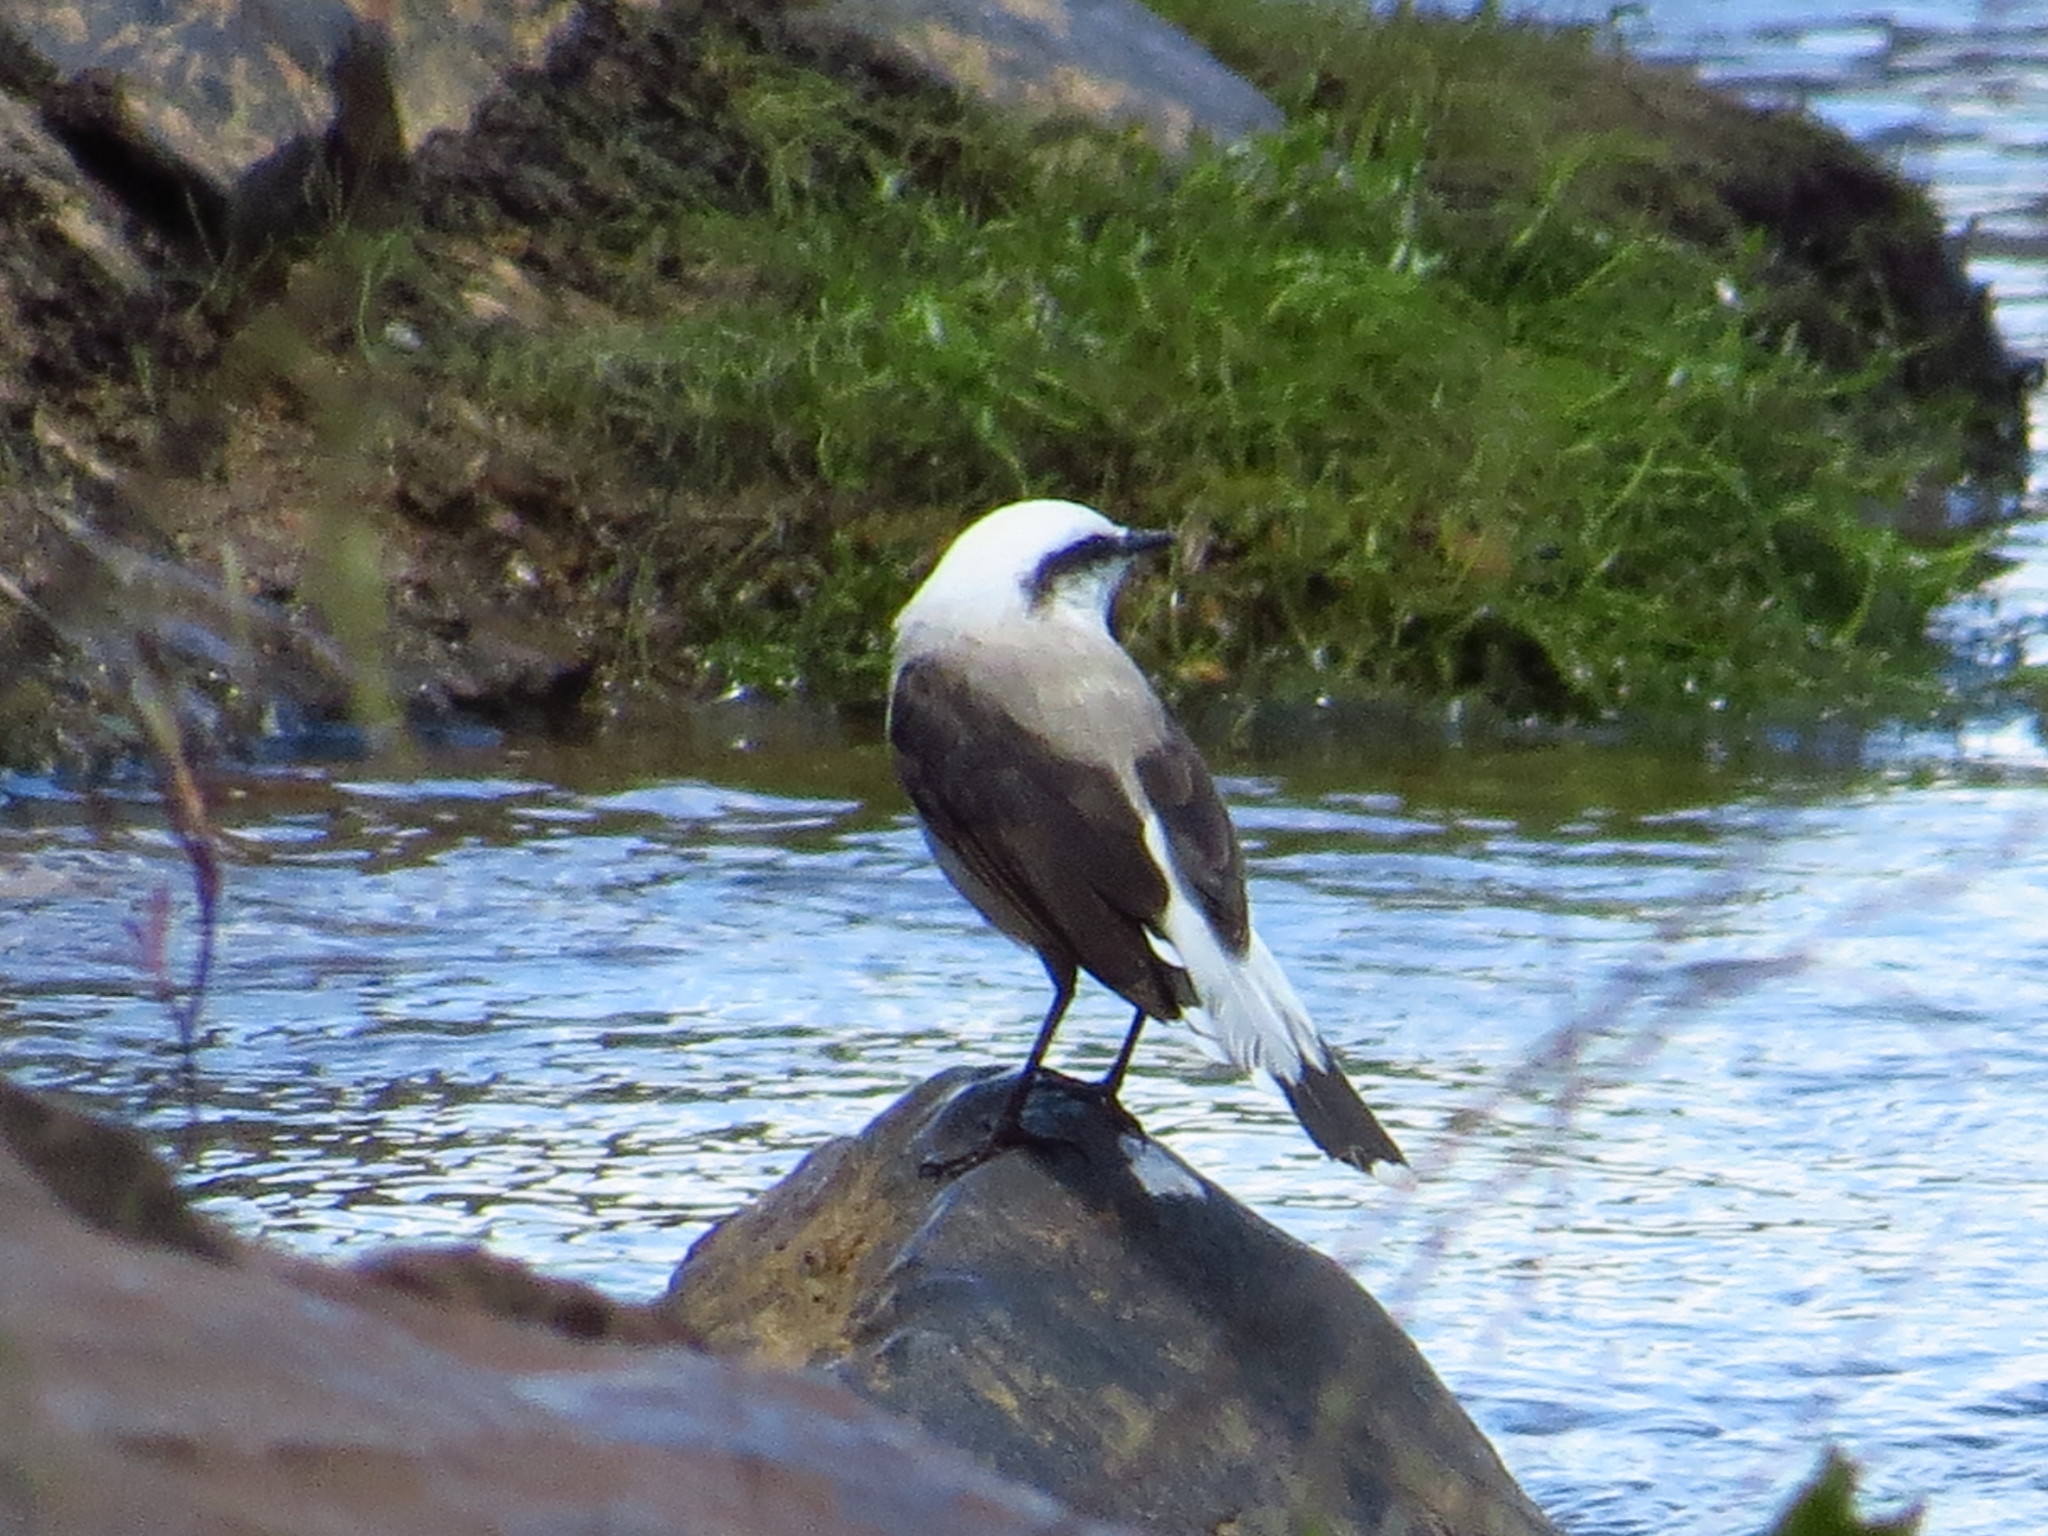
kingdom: Animalia
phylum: Chordata
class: Aves
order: Passeriformes
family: Tyrannidae
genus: Fluvicola
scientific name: Fluvicola nengeta
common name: Masked water tyrant
